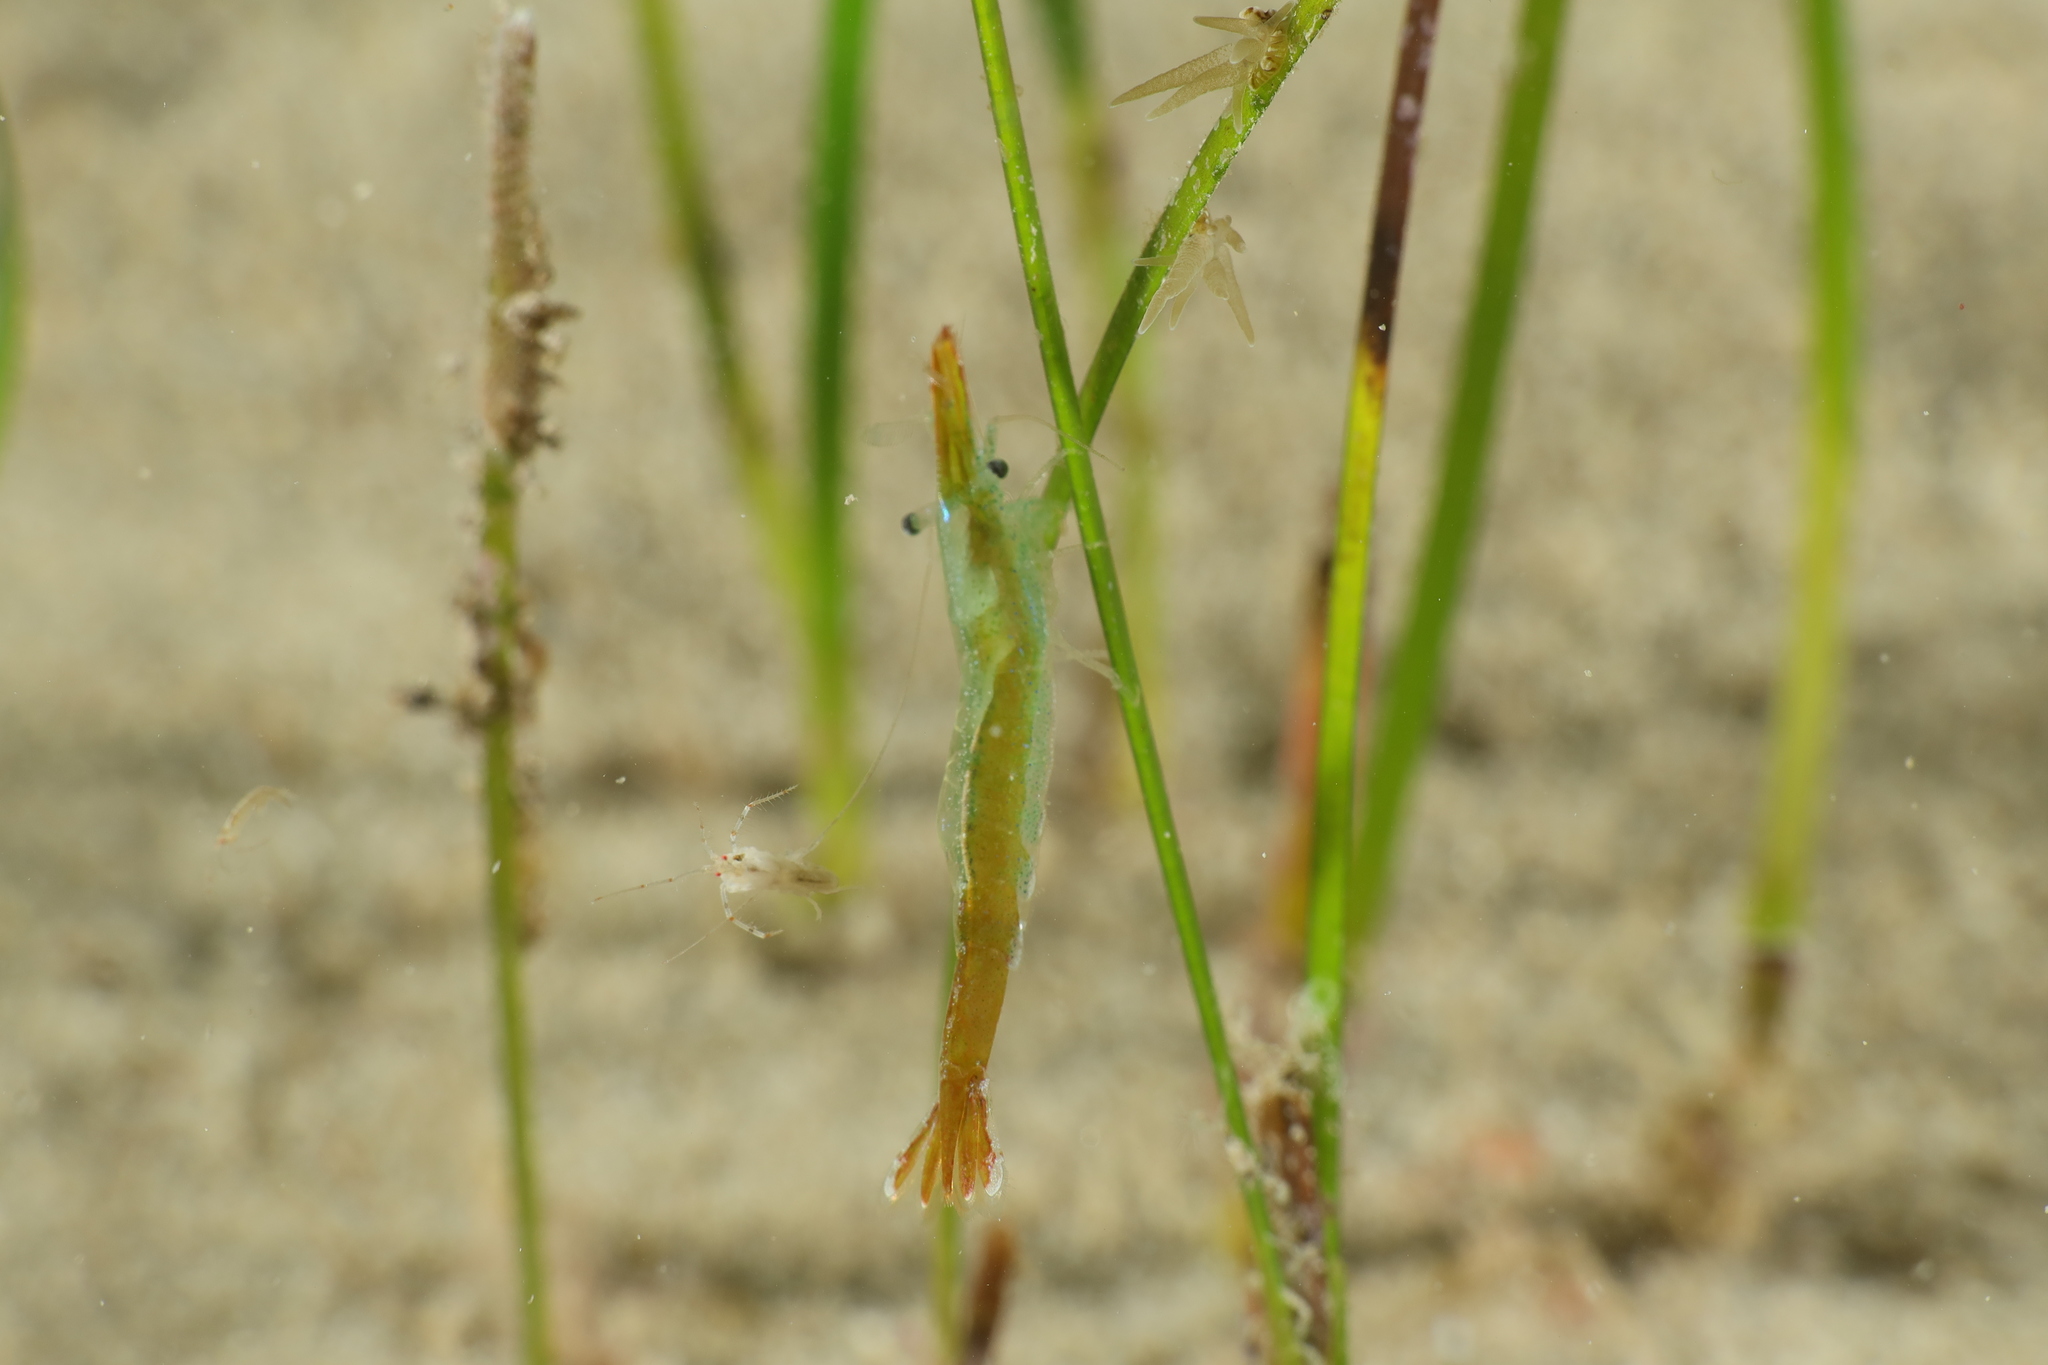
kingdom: Animalia
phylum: Arthropoda
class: Malacostraca
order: Decapoda
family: Hippolytidae
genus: Hippolyte
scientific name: Hippolyte inermis
